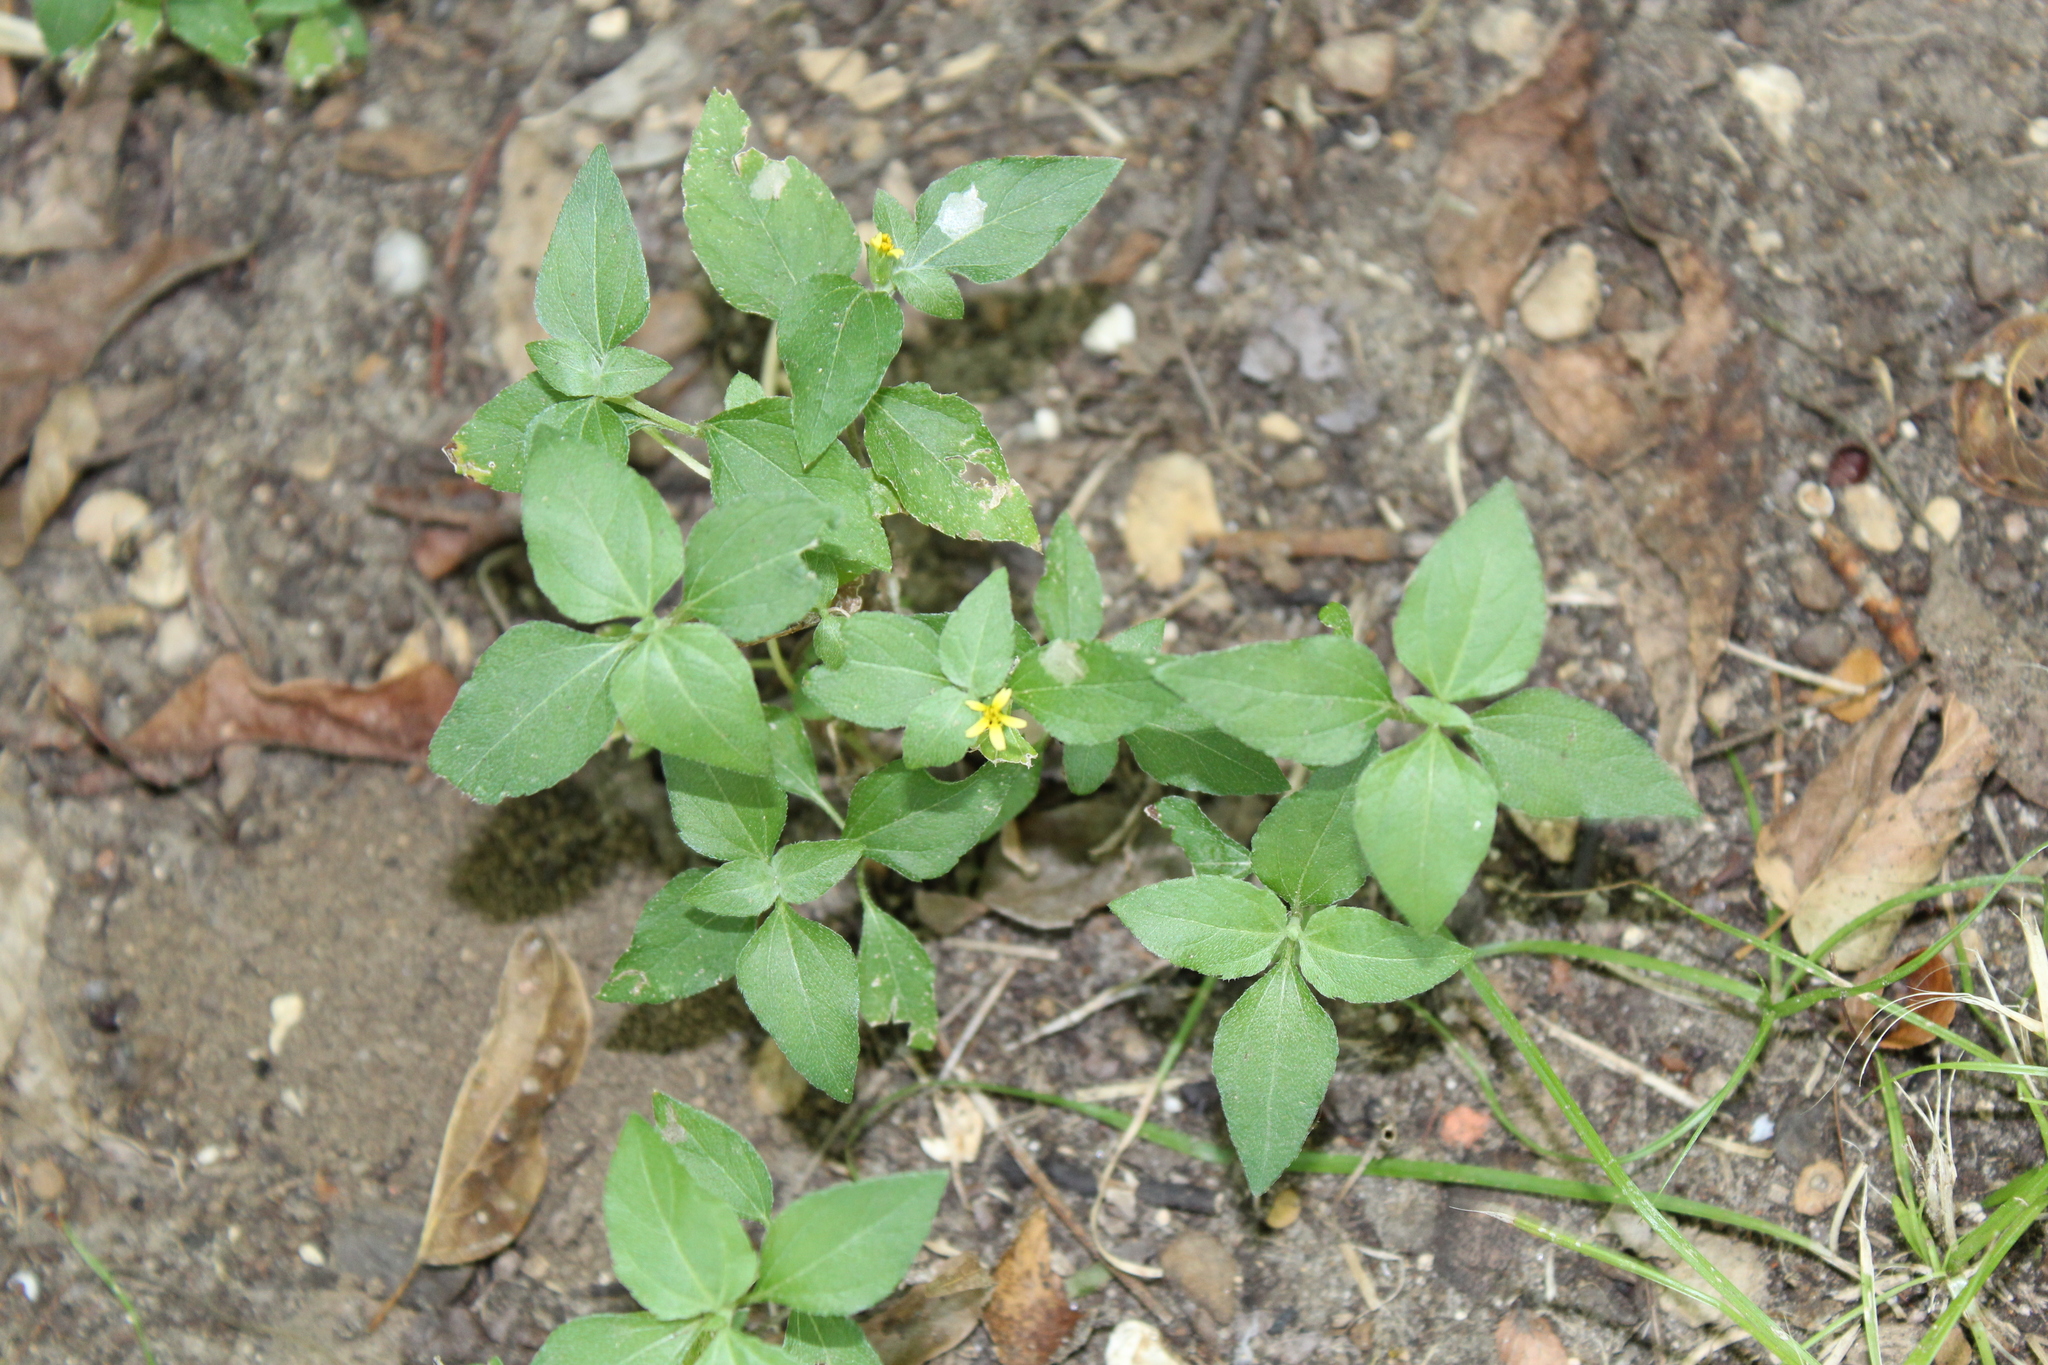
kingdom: Plantae
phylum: Tracheophyta
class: Magnoliopsida
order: Asterales
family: Asteraceae
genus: Calyptocarpus
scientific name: Calyptocarpus vialis
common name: Straggler daisy
